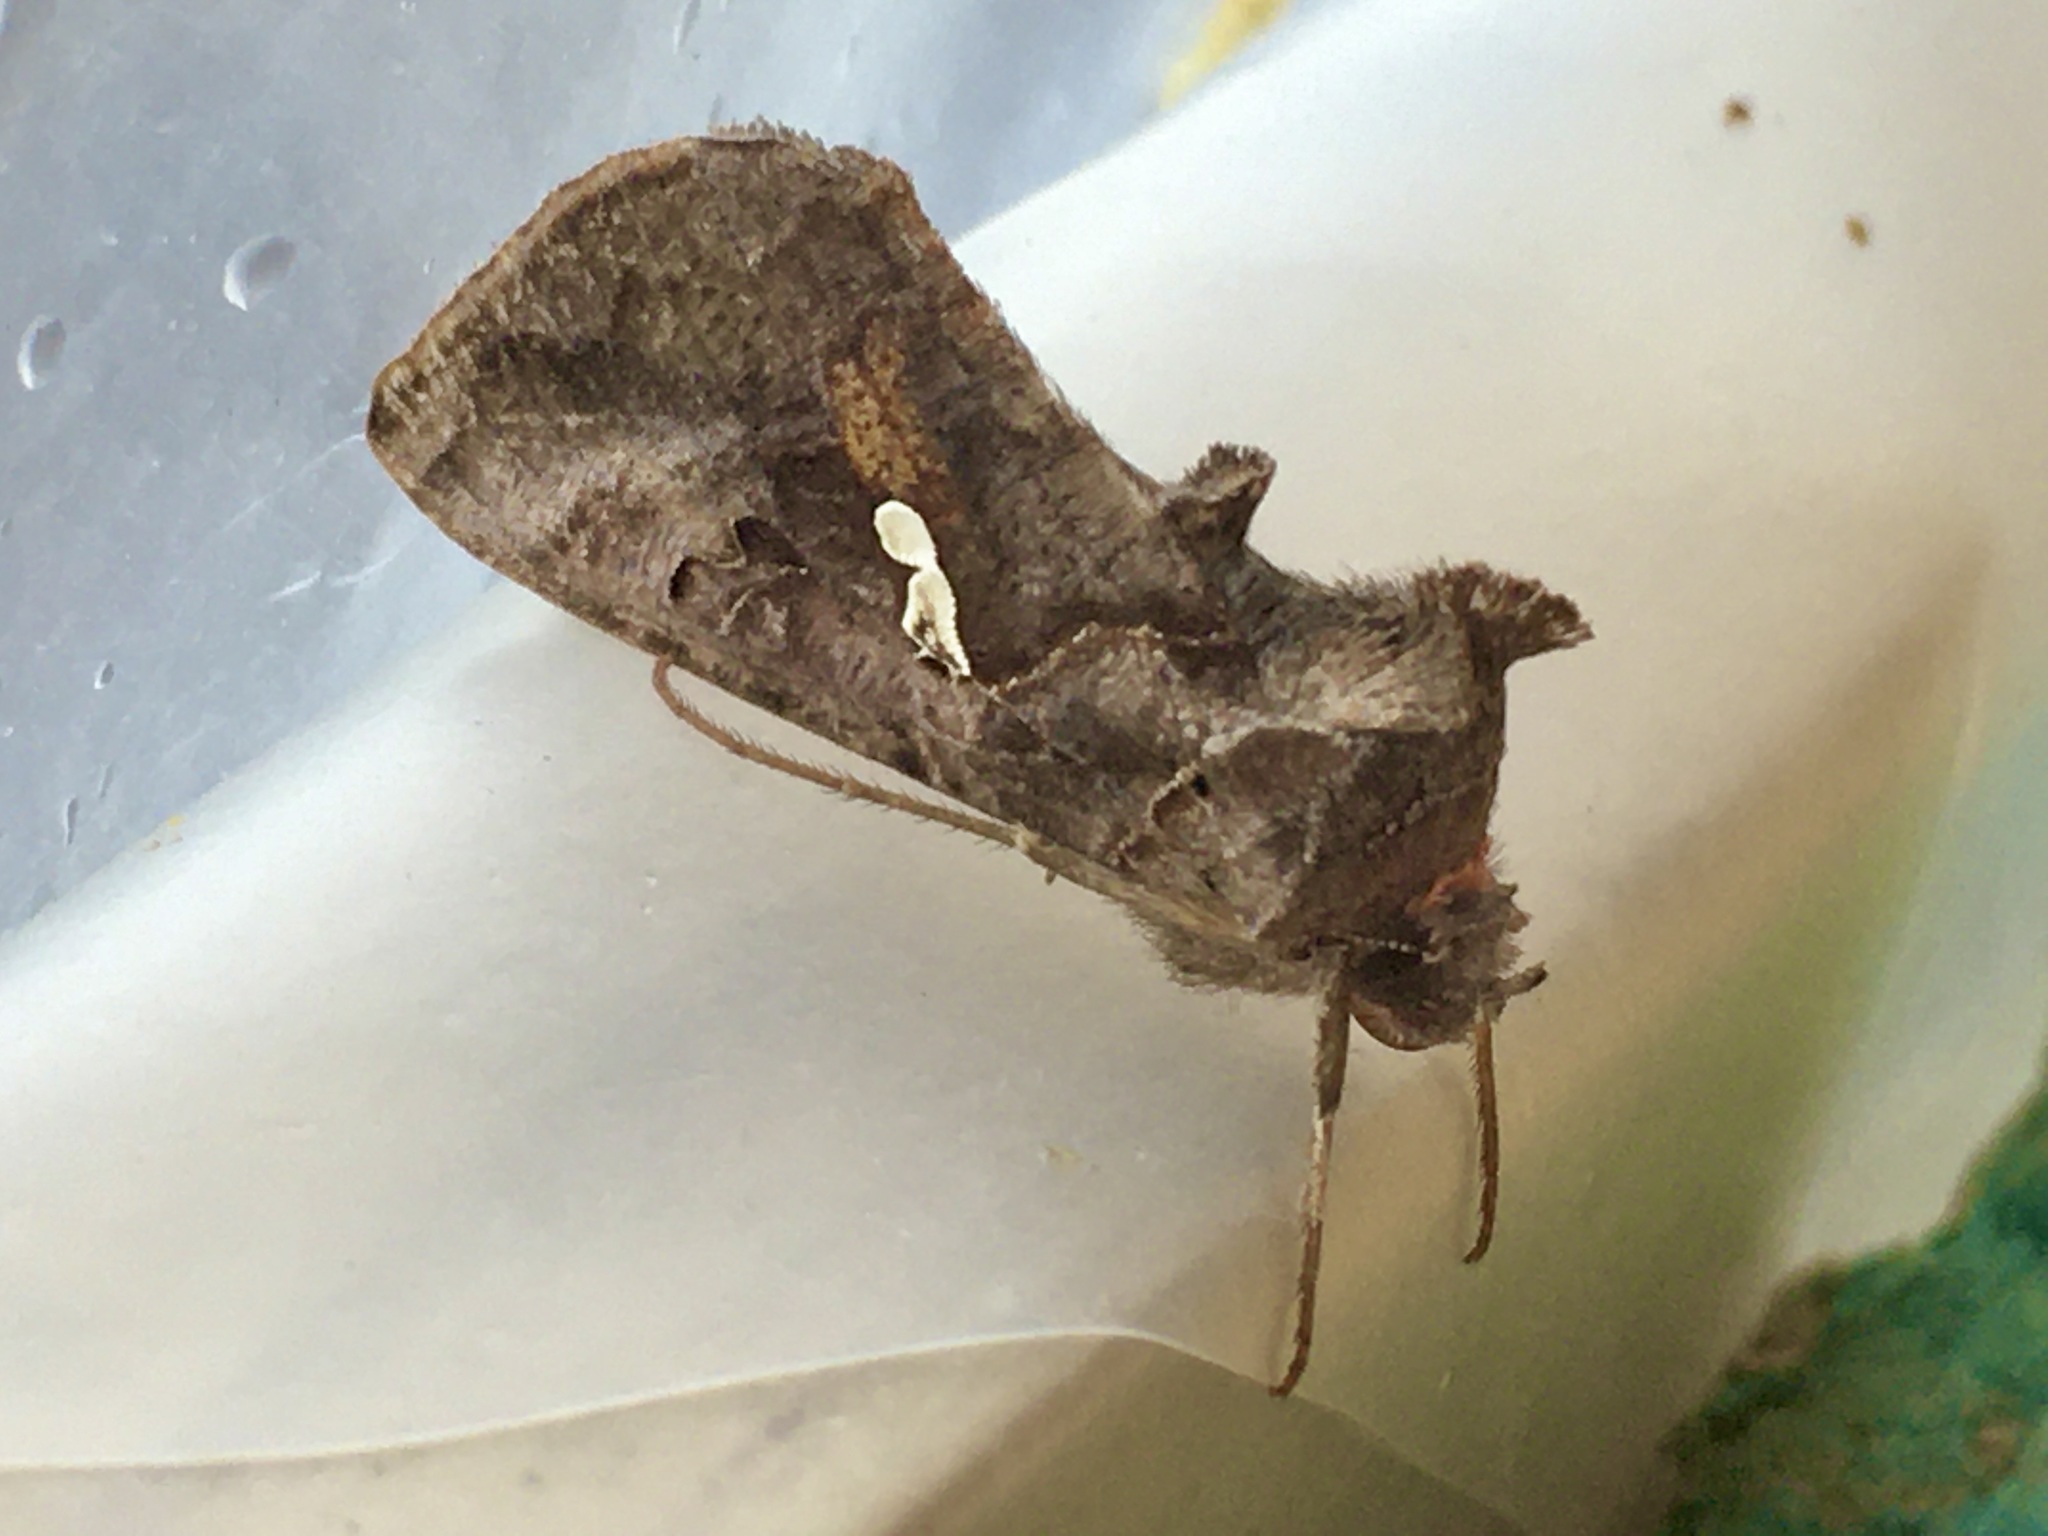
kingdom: Animalia
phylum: Arthropoda
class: Insecta
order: Lepidoptera
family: Noctuidae
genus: Autographa
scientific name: Autographa precationis
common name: Common looper moth
